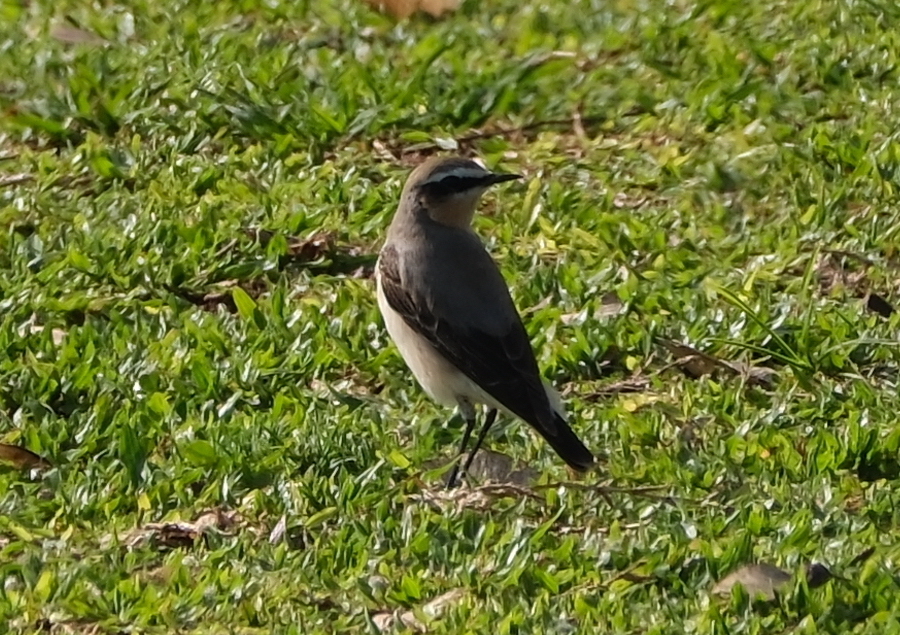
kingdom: Animalia
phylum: Chordata
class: Aves
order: Passeriformes
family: Muscicapidae
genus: Oenanthe
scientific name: Oenanthe oenanthe
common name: Northern wheatear
